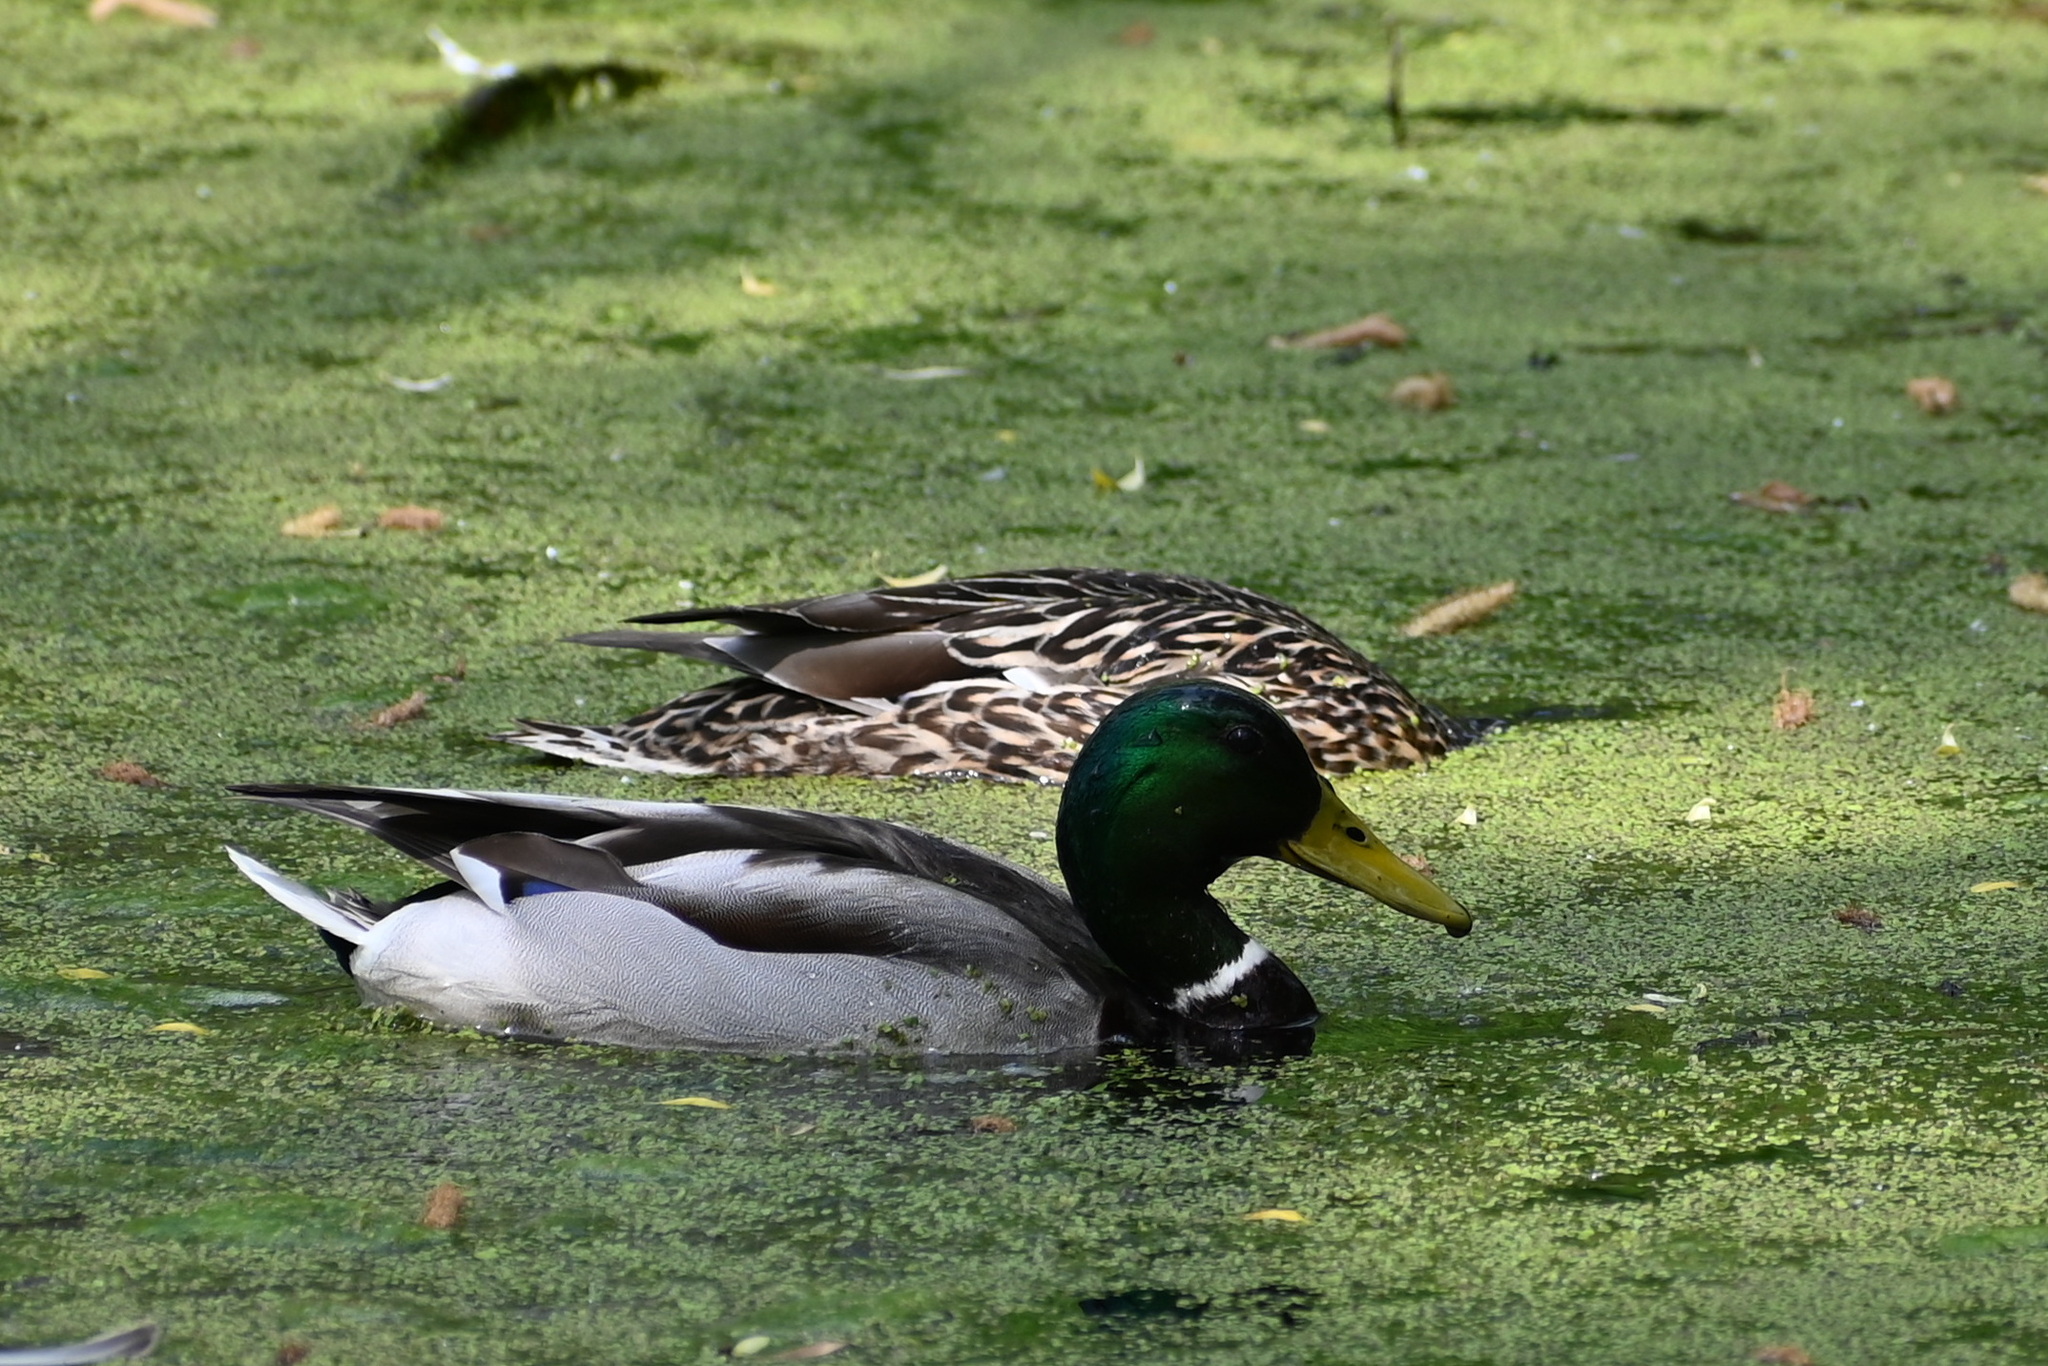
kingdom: Animalia
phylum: Chordata
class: Aves
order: Anseriformes
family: Anatidae
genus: Anas
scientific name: Anas platyrhynchos
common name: Mallard
